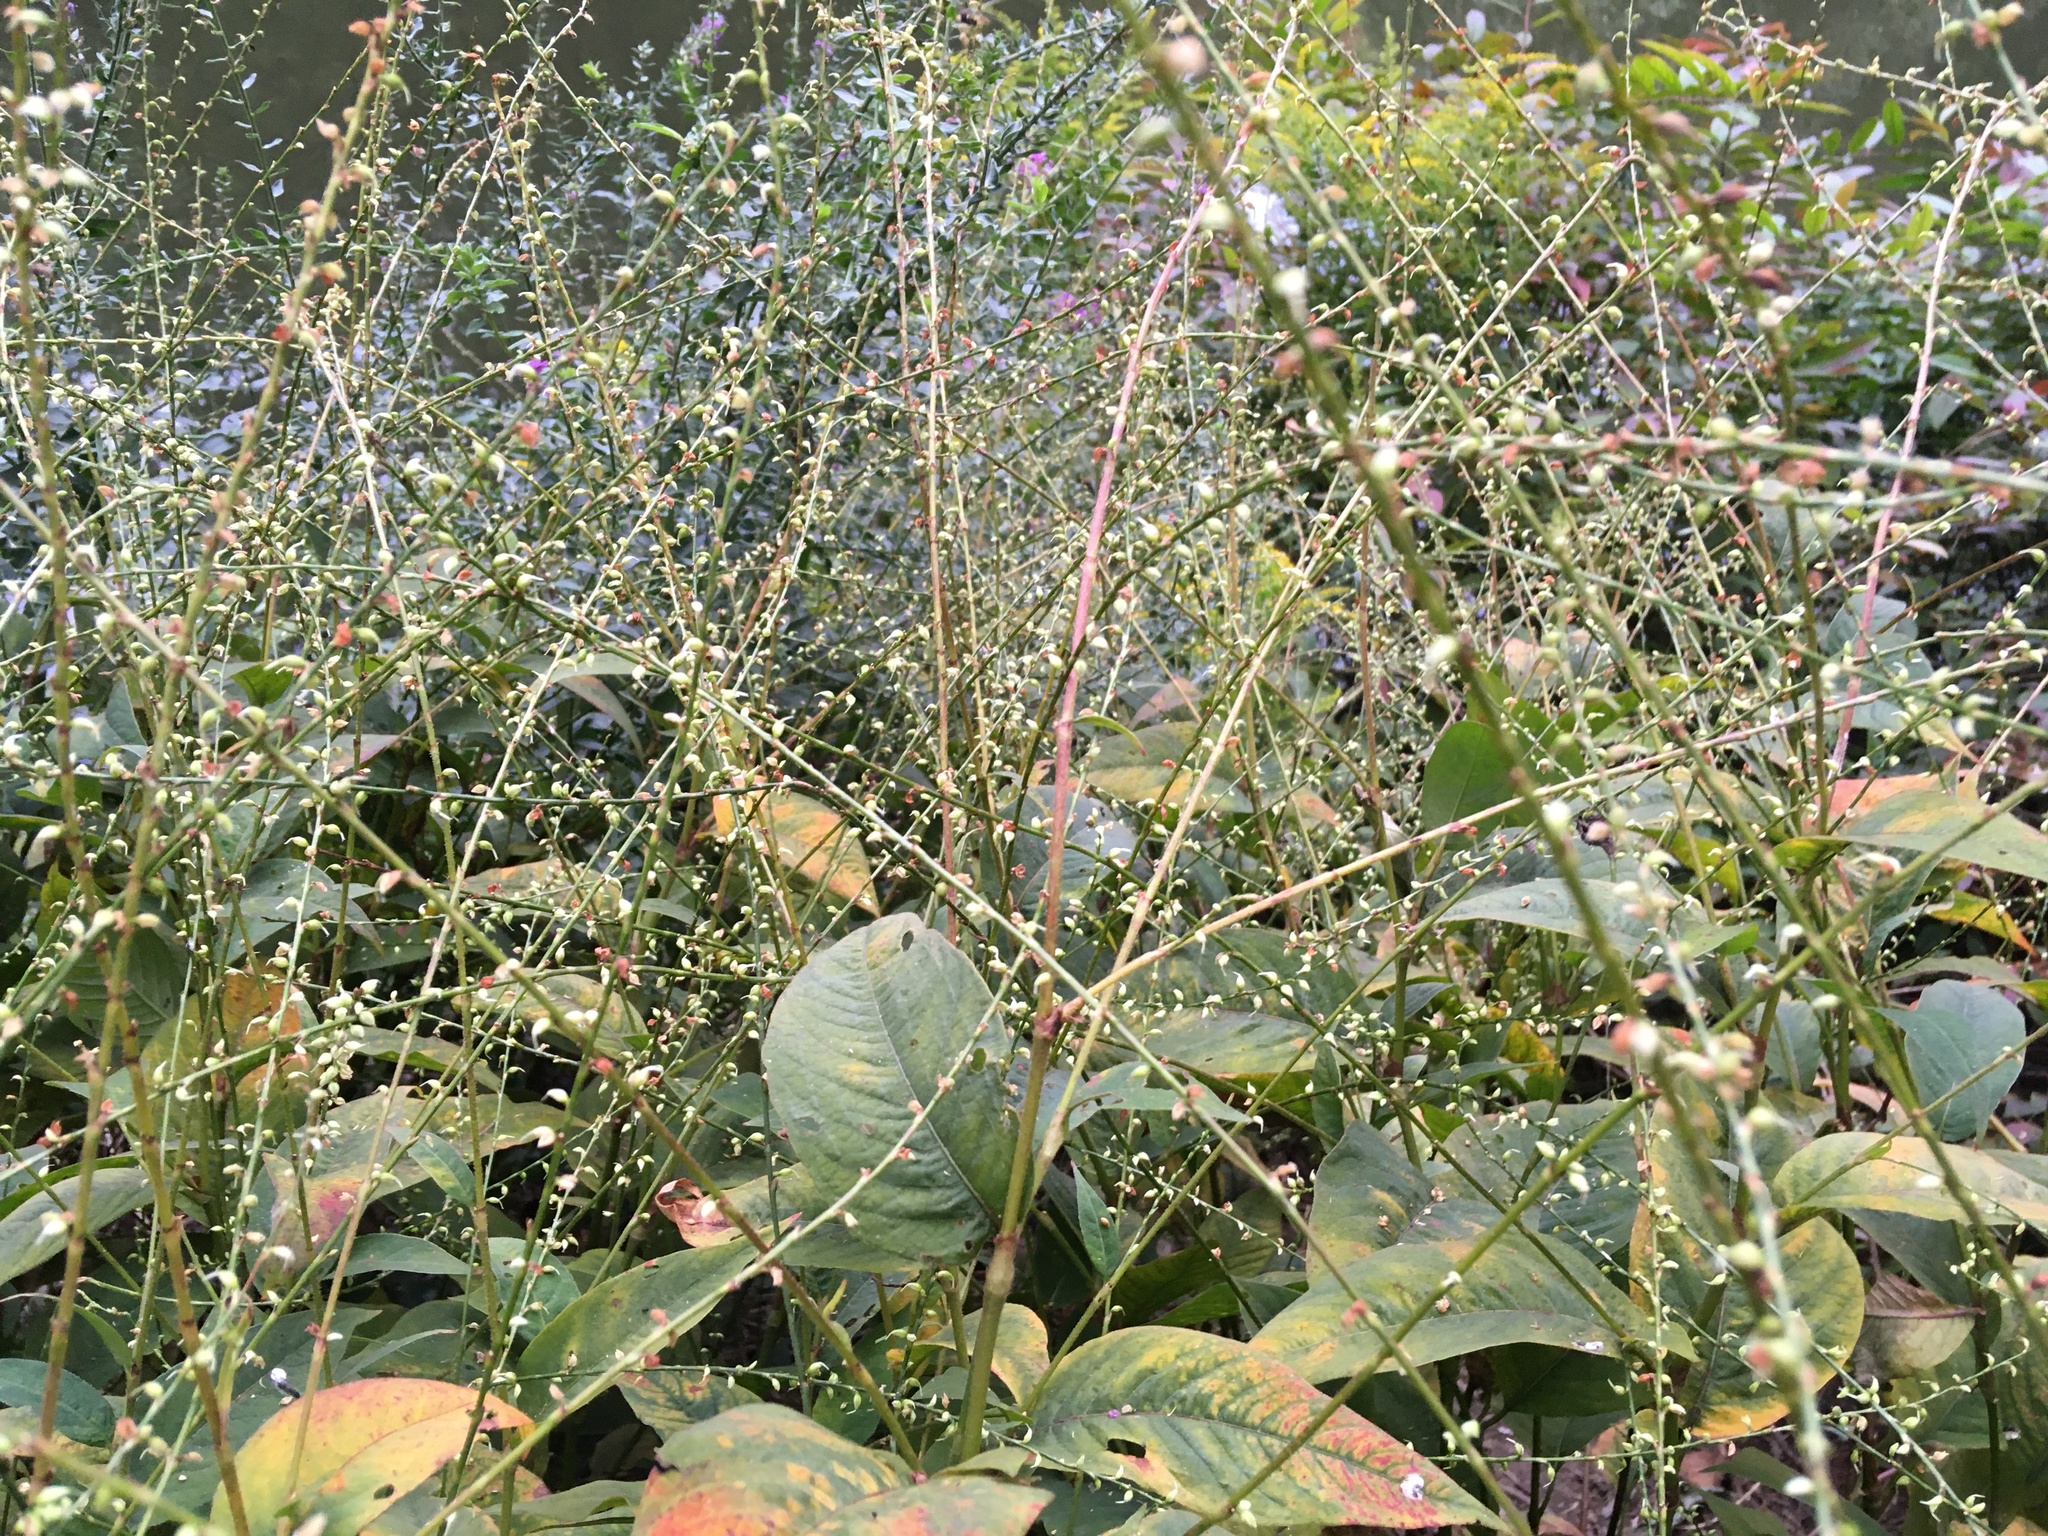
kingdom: Plantae
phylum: Tracheophyta
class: Magnoliopsida
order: Caryophyllales
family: Polygonaceae
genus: Persicaria
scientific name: Persicaria virginiana
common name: Jumpseed
